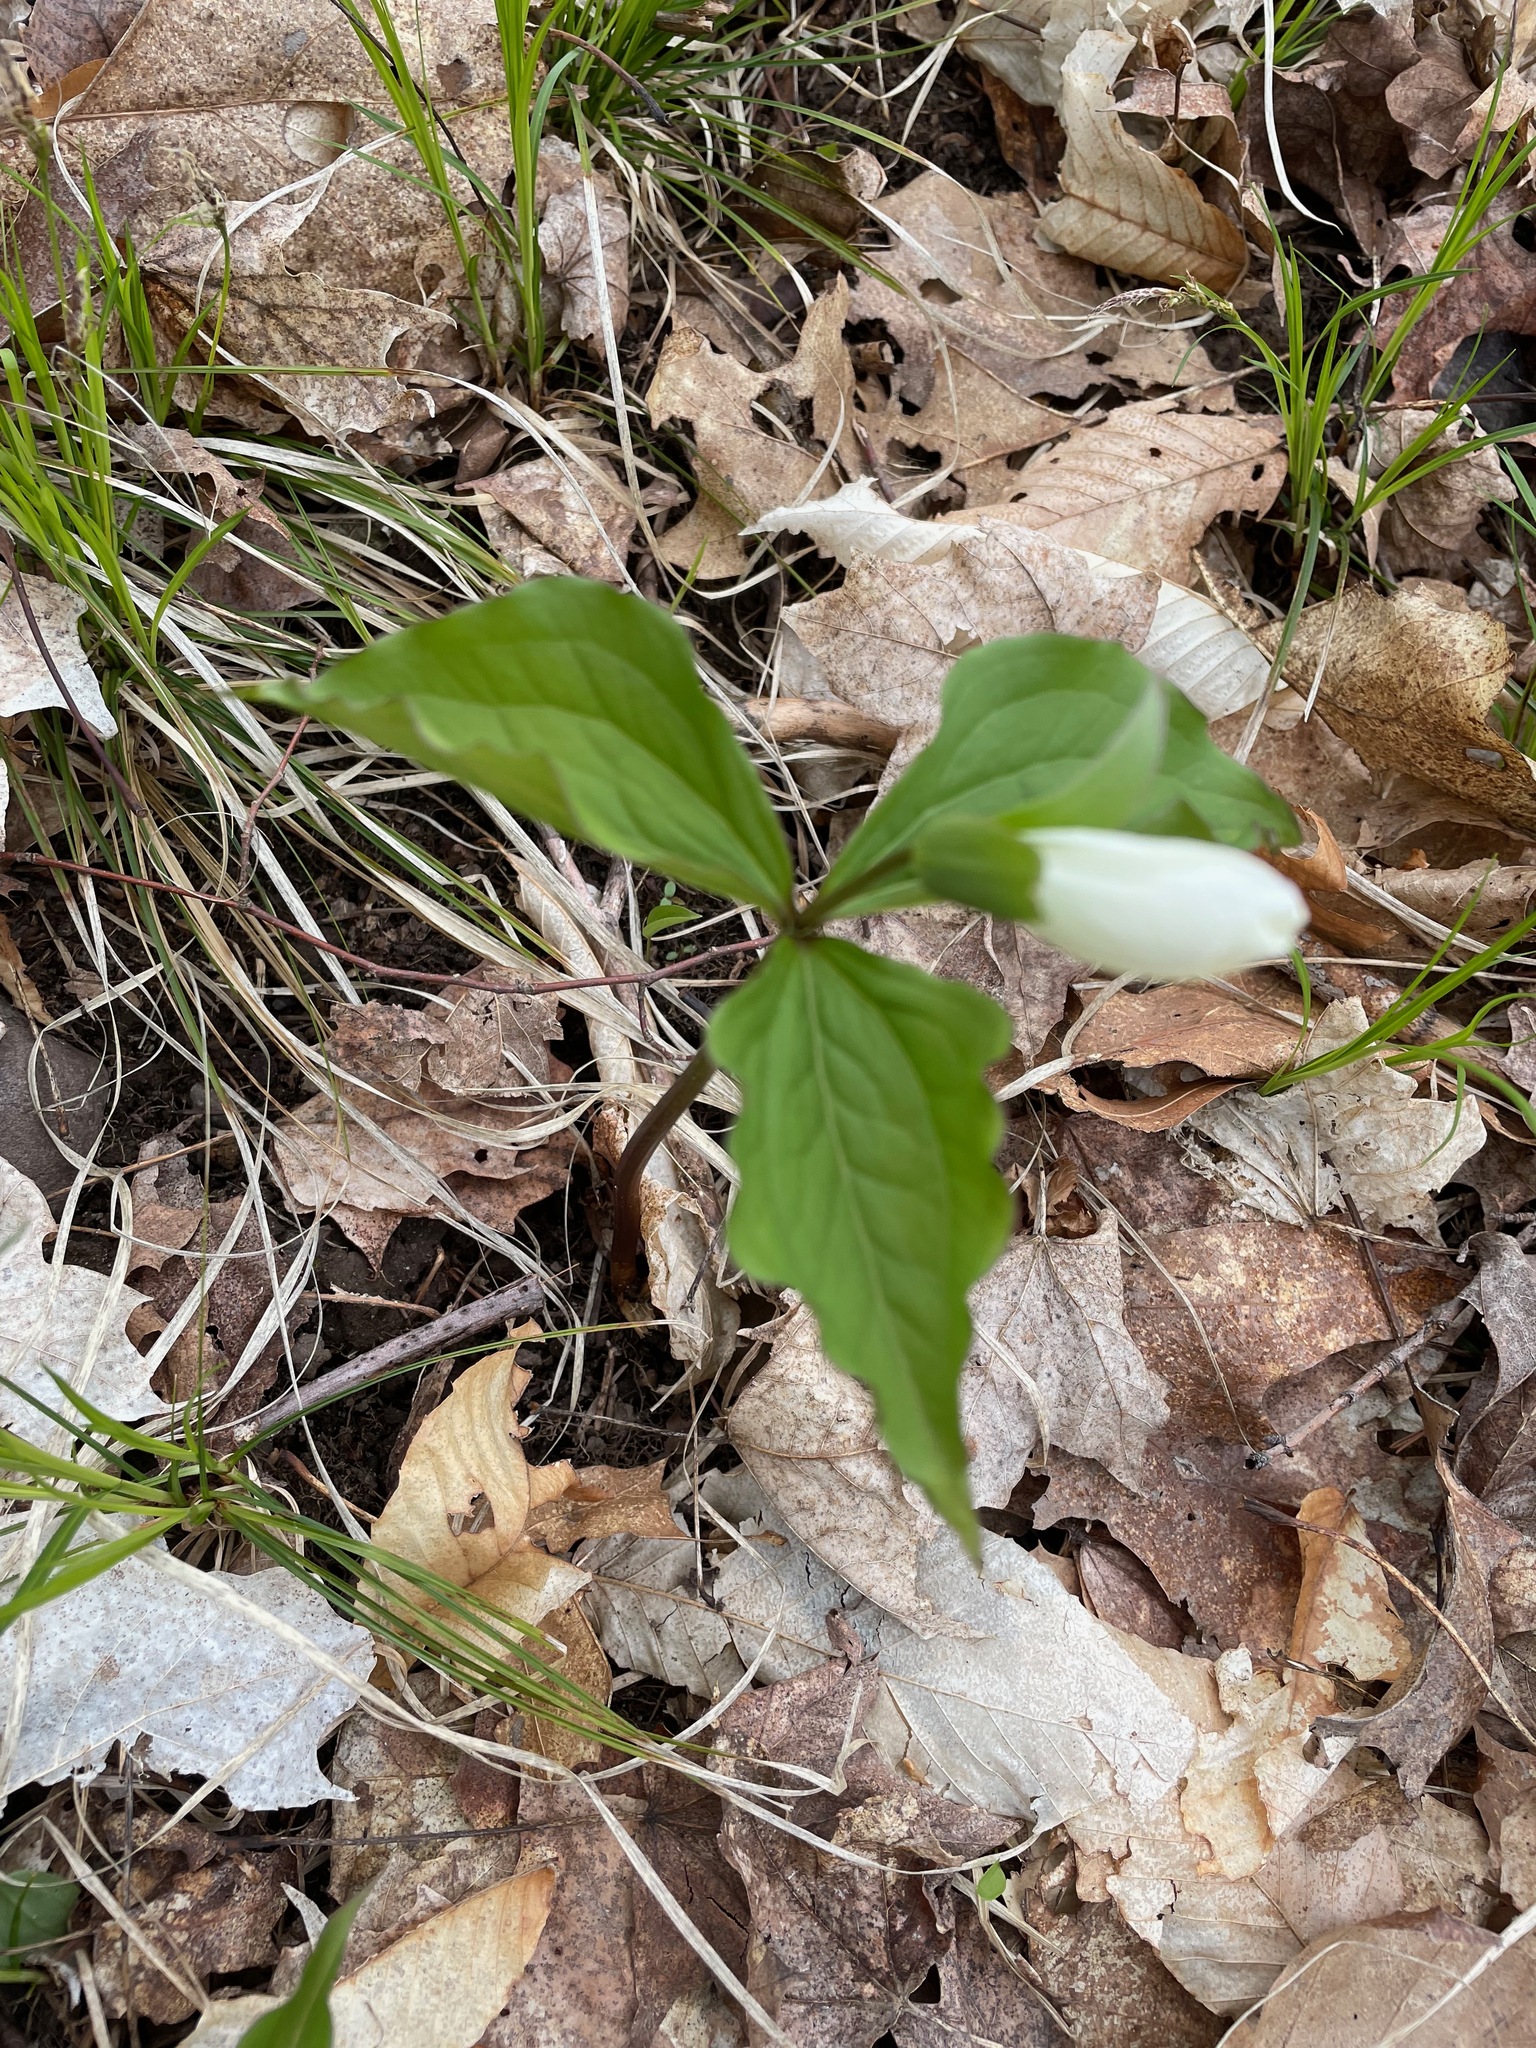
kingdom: Plantae
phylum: Tracheophyta
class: Liliopsida
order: Liliales
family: Melanthiaceae
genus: Trillium
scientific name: Trillium grandiflorum
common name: Great white trillium
